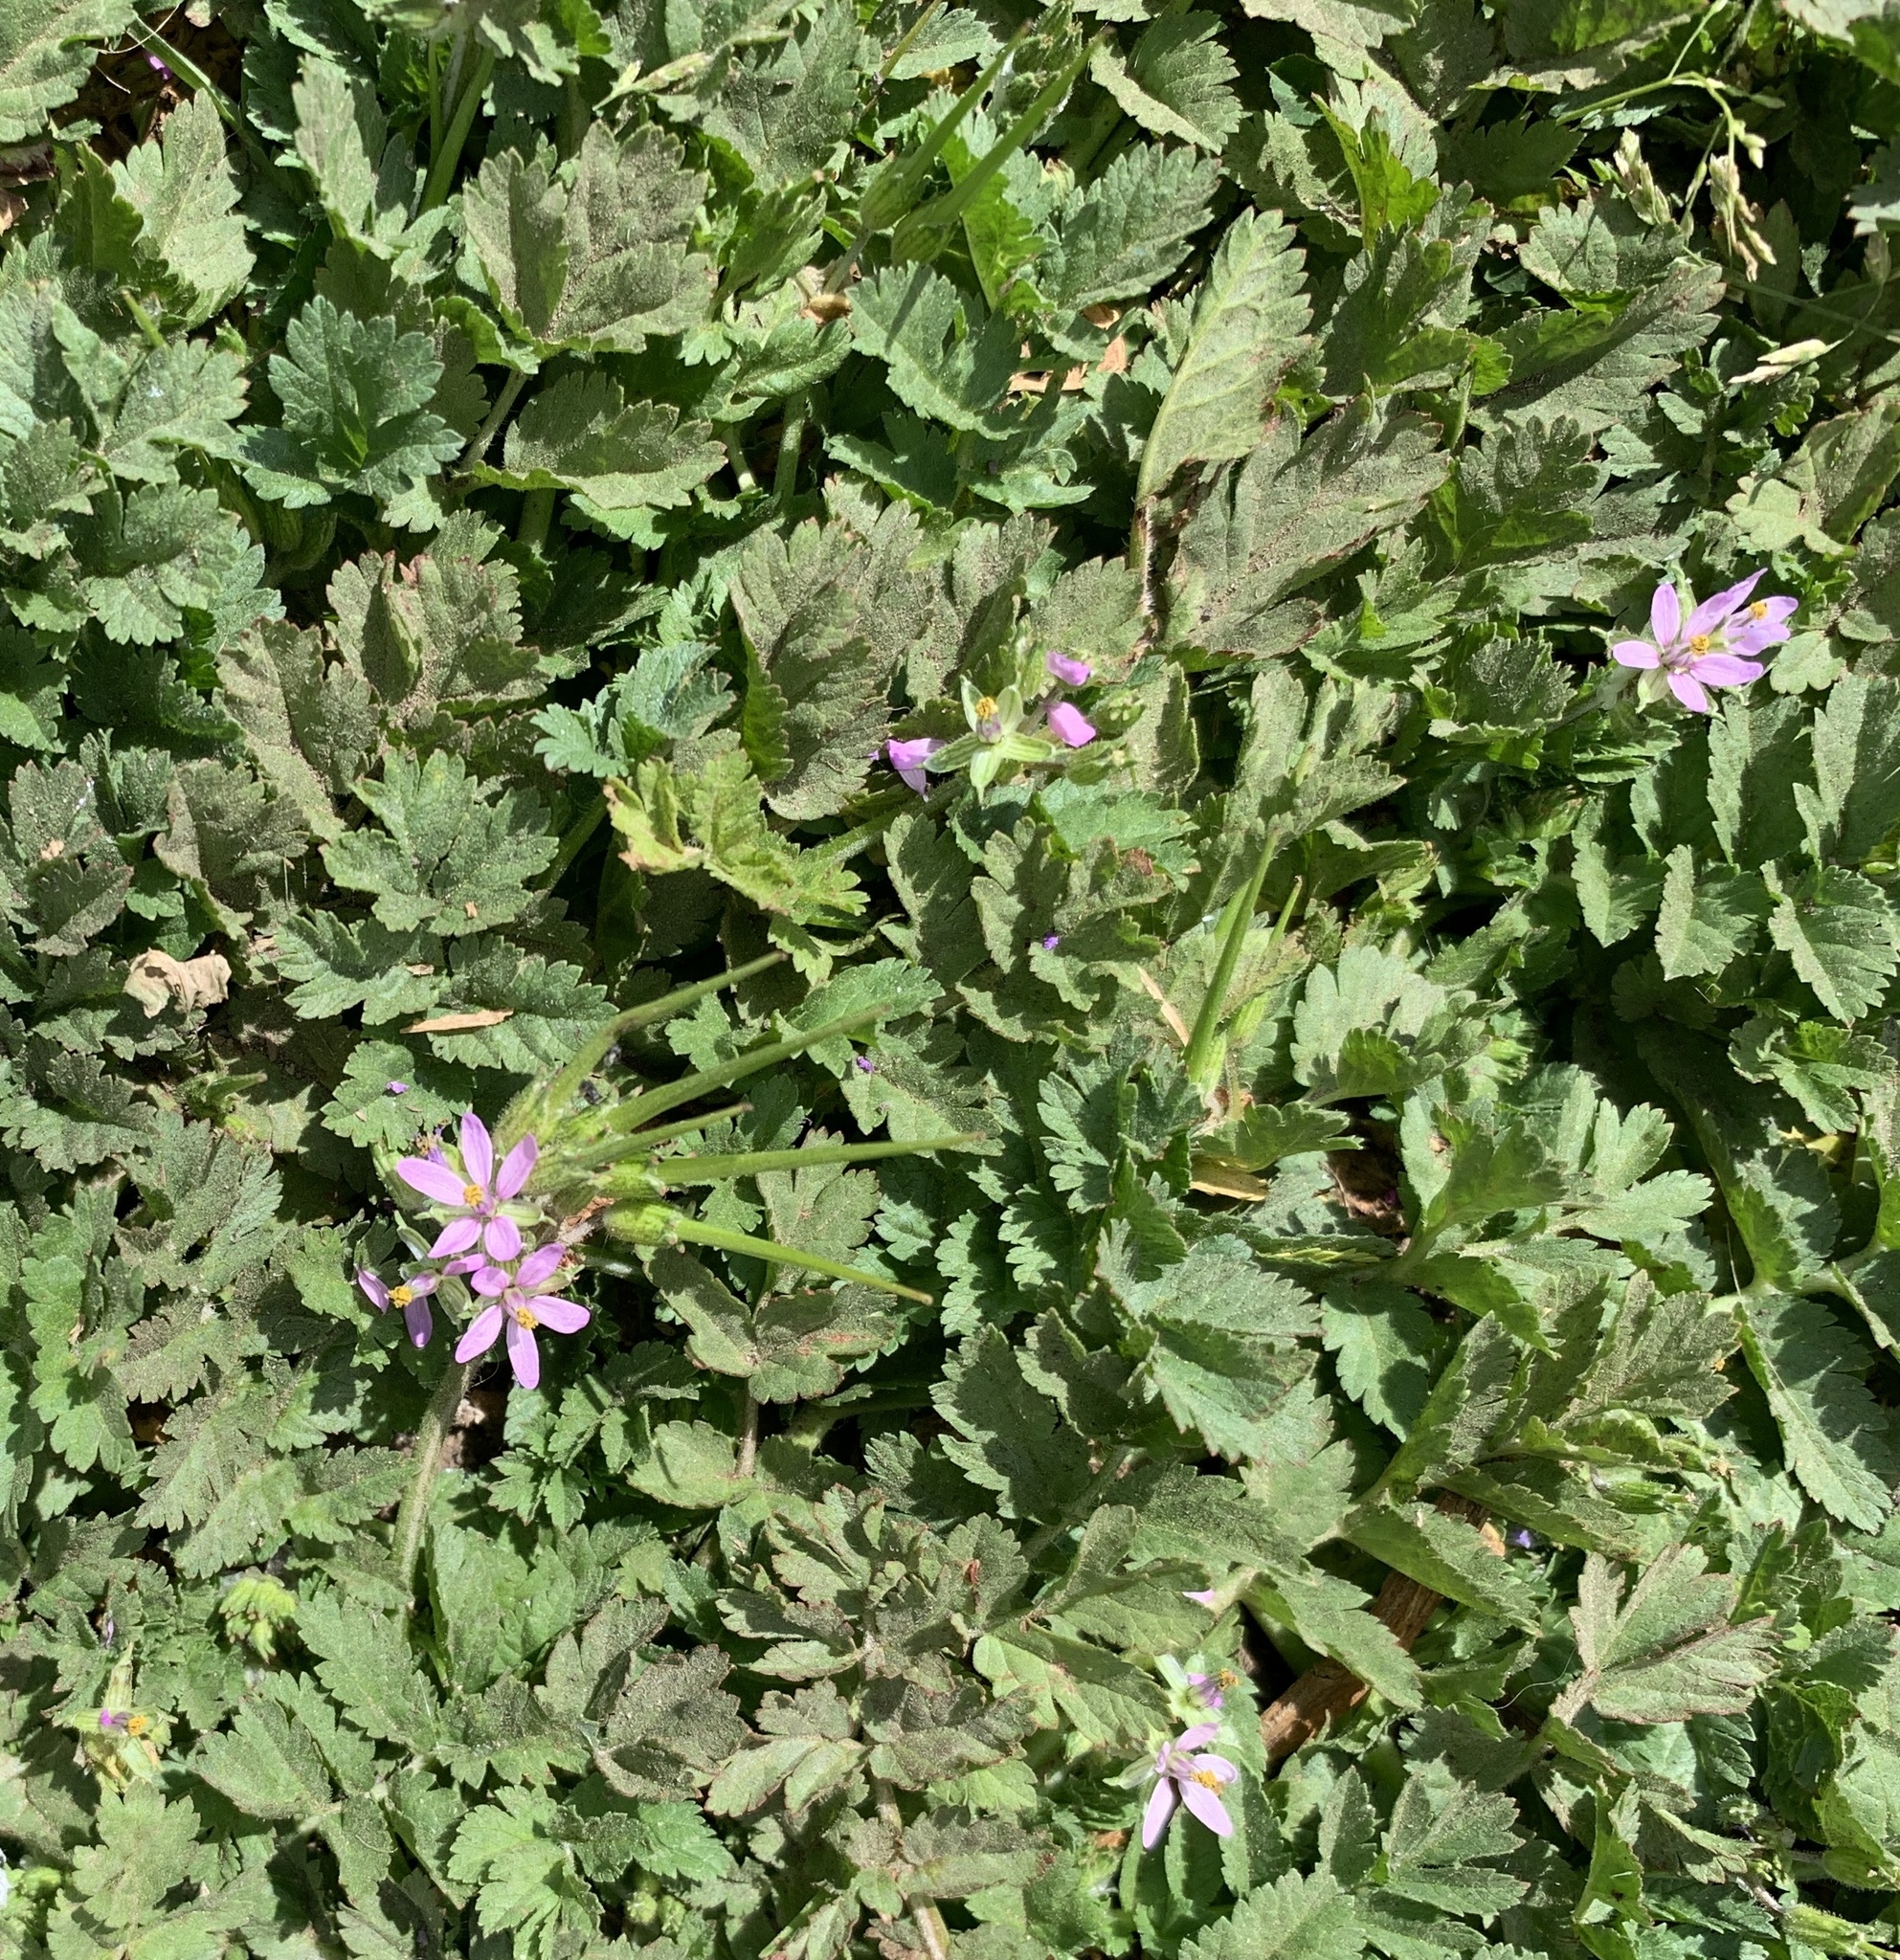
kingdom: Plantae
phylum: Tracheophyta
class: Magnoliopsida
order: Geraniales
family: Geraniaceae
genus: Erodium
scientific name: Erodium moschatum
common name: Musk stork's-bill
